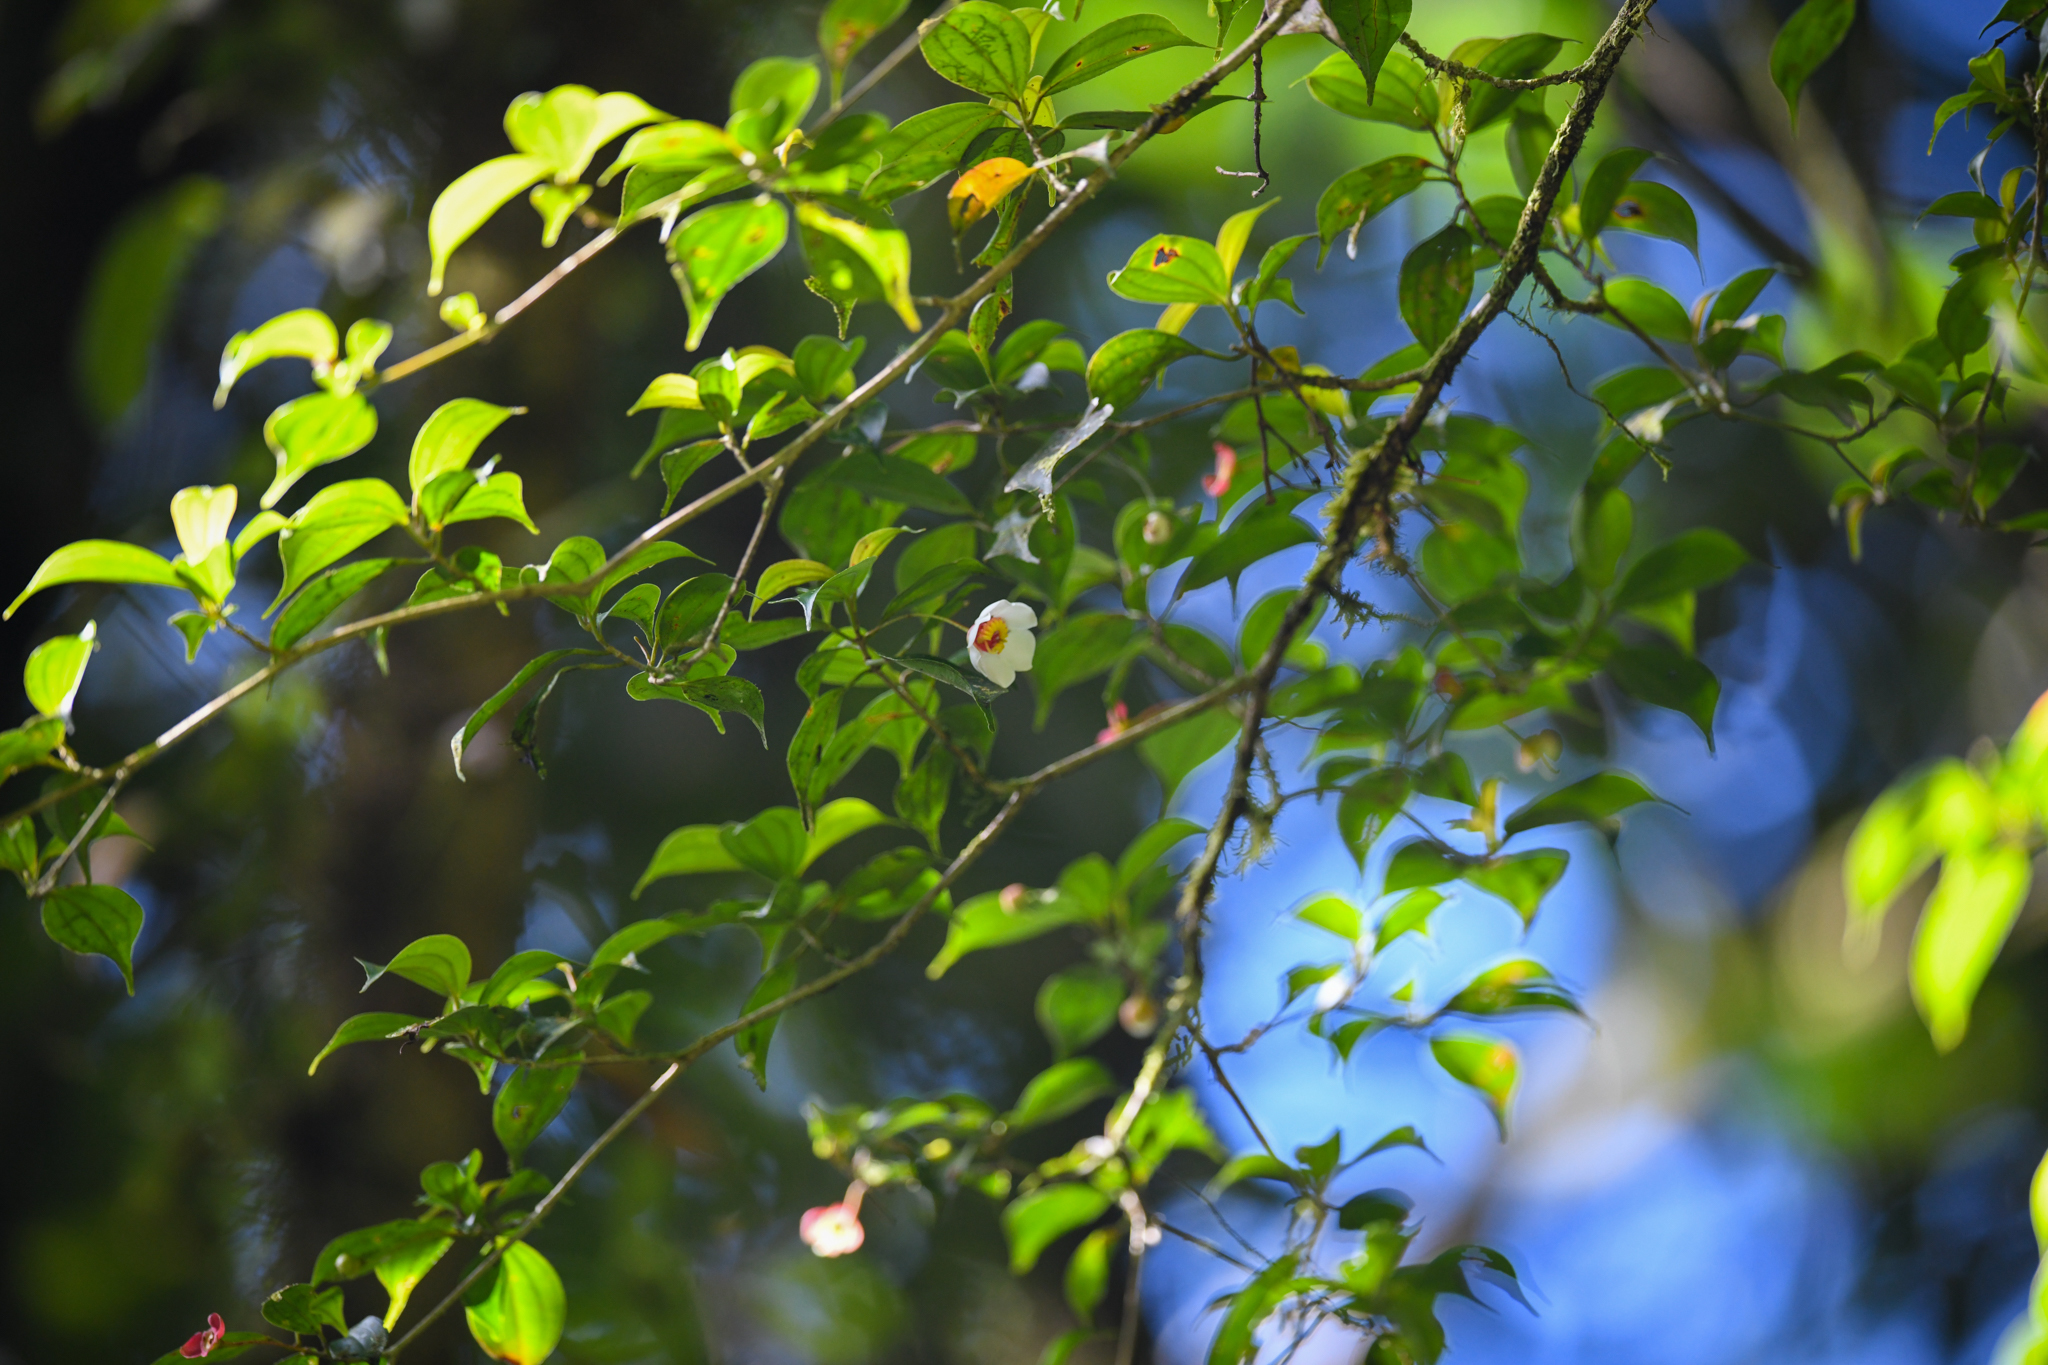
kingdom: Plantae
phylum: Tracheophyta
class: Magnoliopsida
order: Myrtales
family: Melastomataceae
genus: Blakea
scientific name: Blakea anomala
